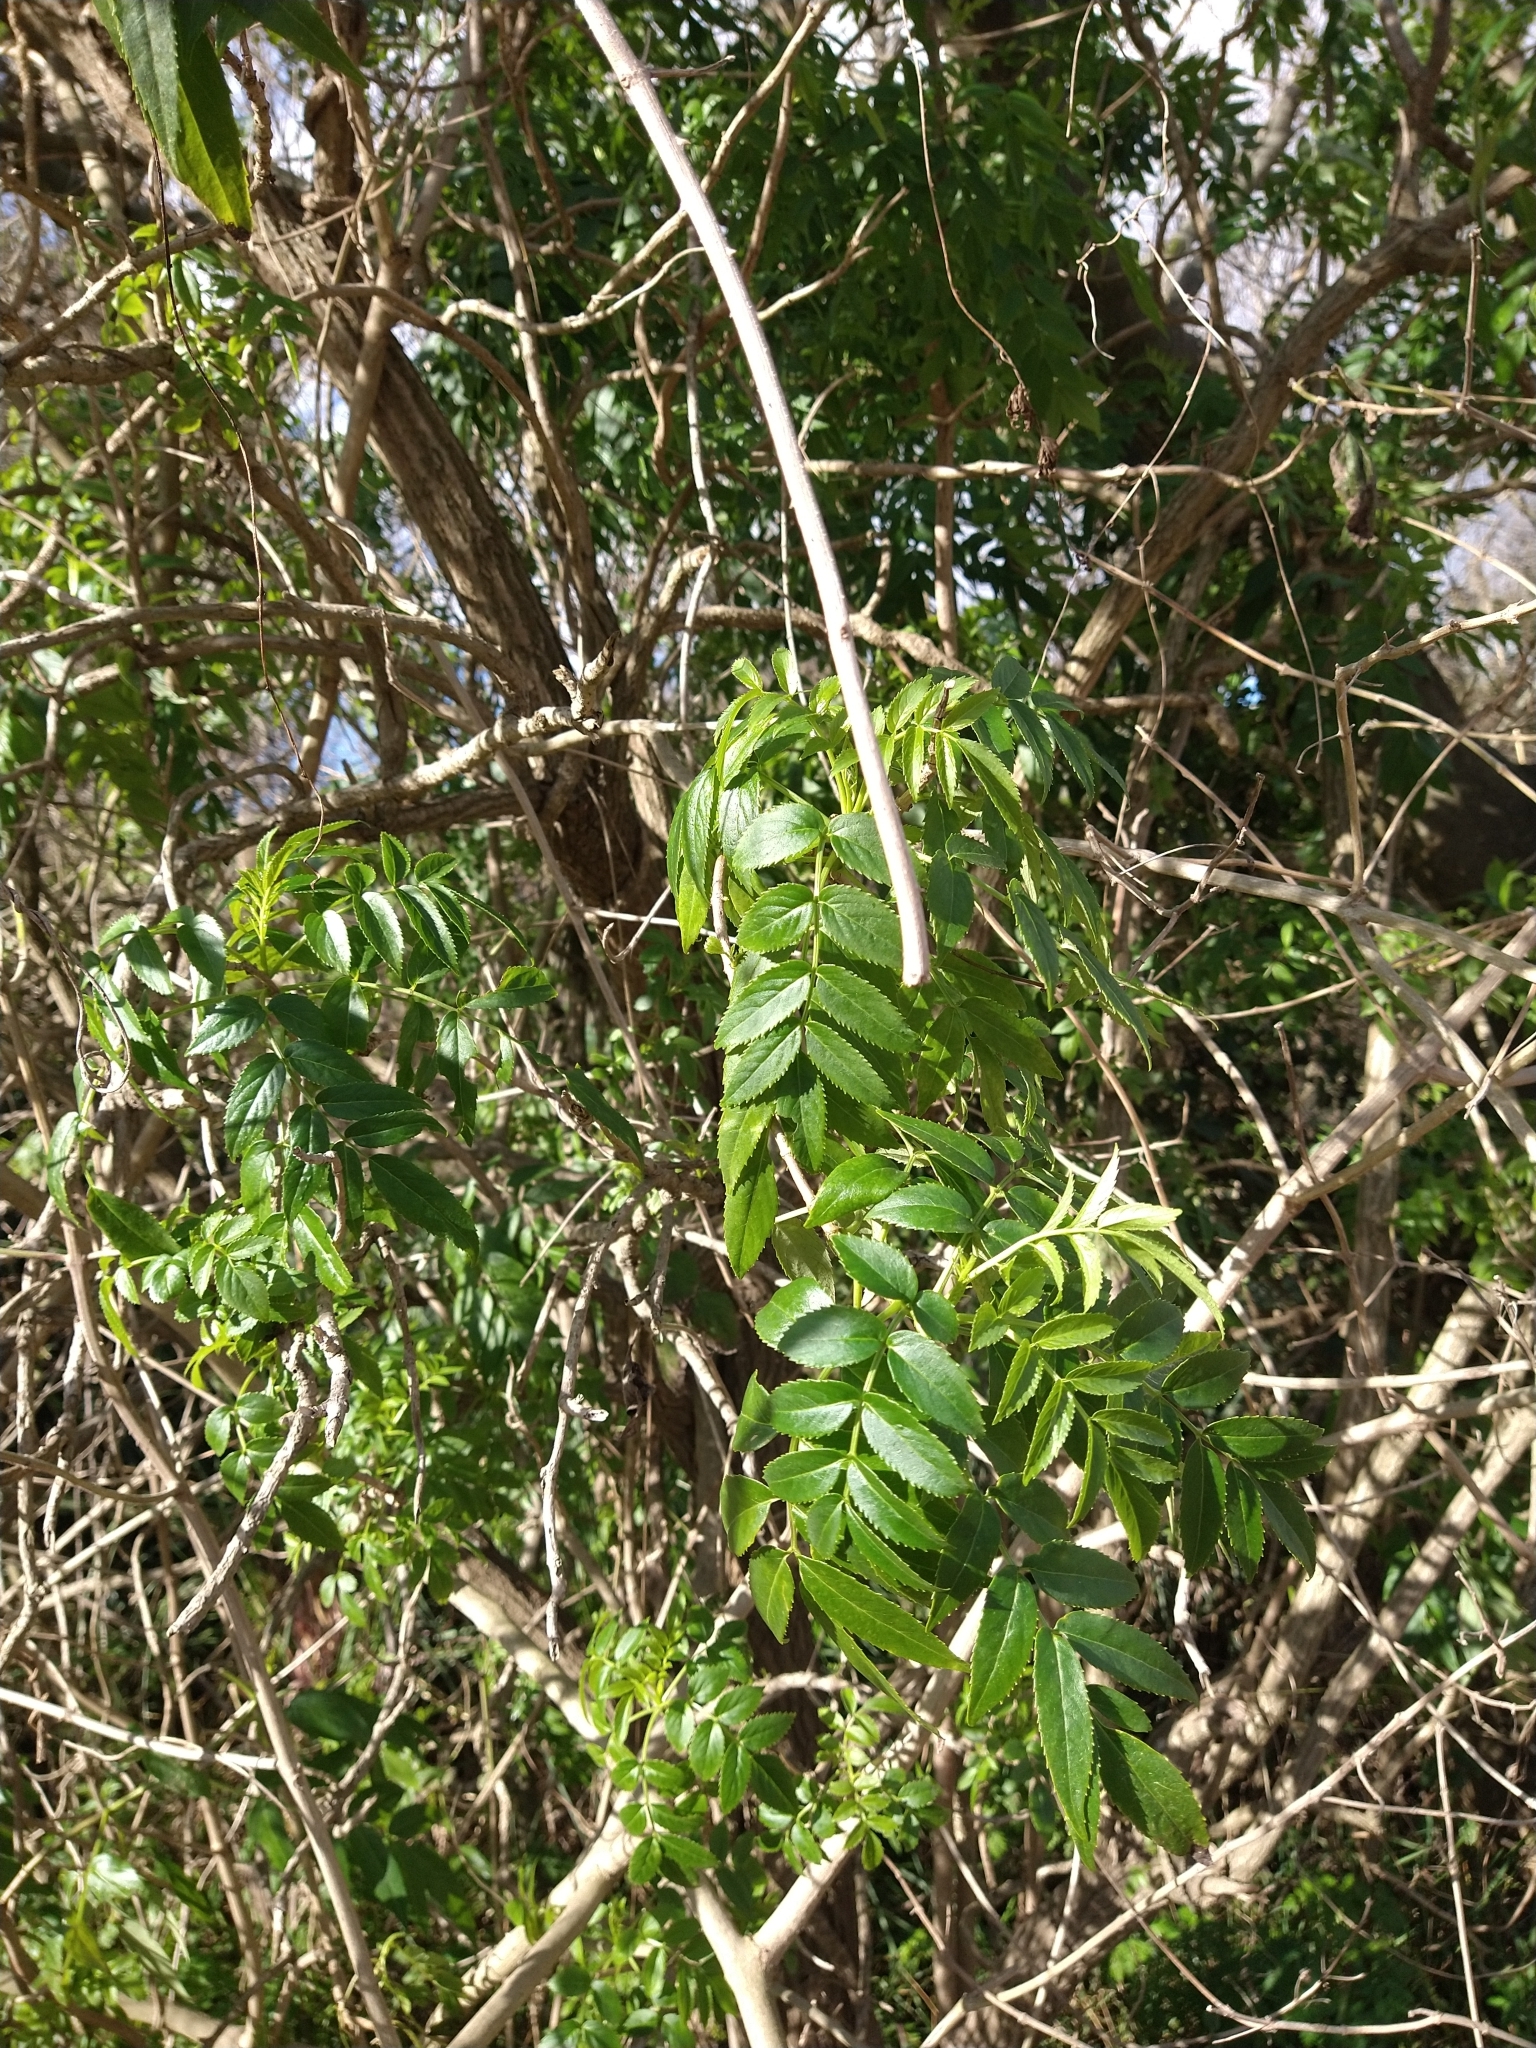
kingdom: Plantae
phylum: Tracheophyta
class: Magnoliopsida
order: Lamiales
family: Bignoniaceae
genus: Tecoma
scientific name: Tecoma stans
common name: Yellow trumpetbush
